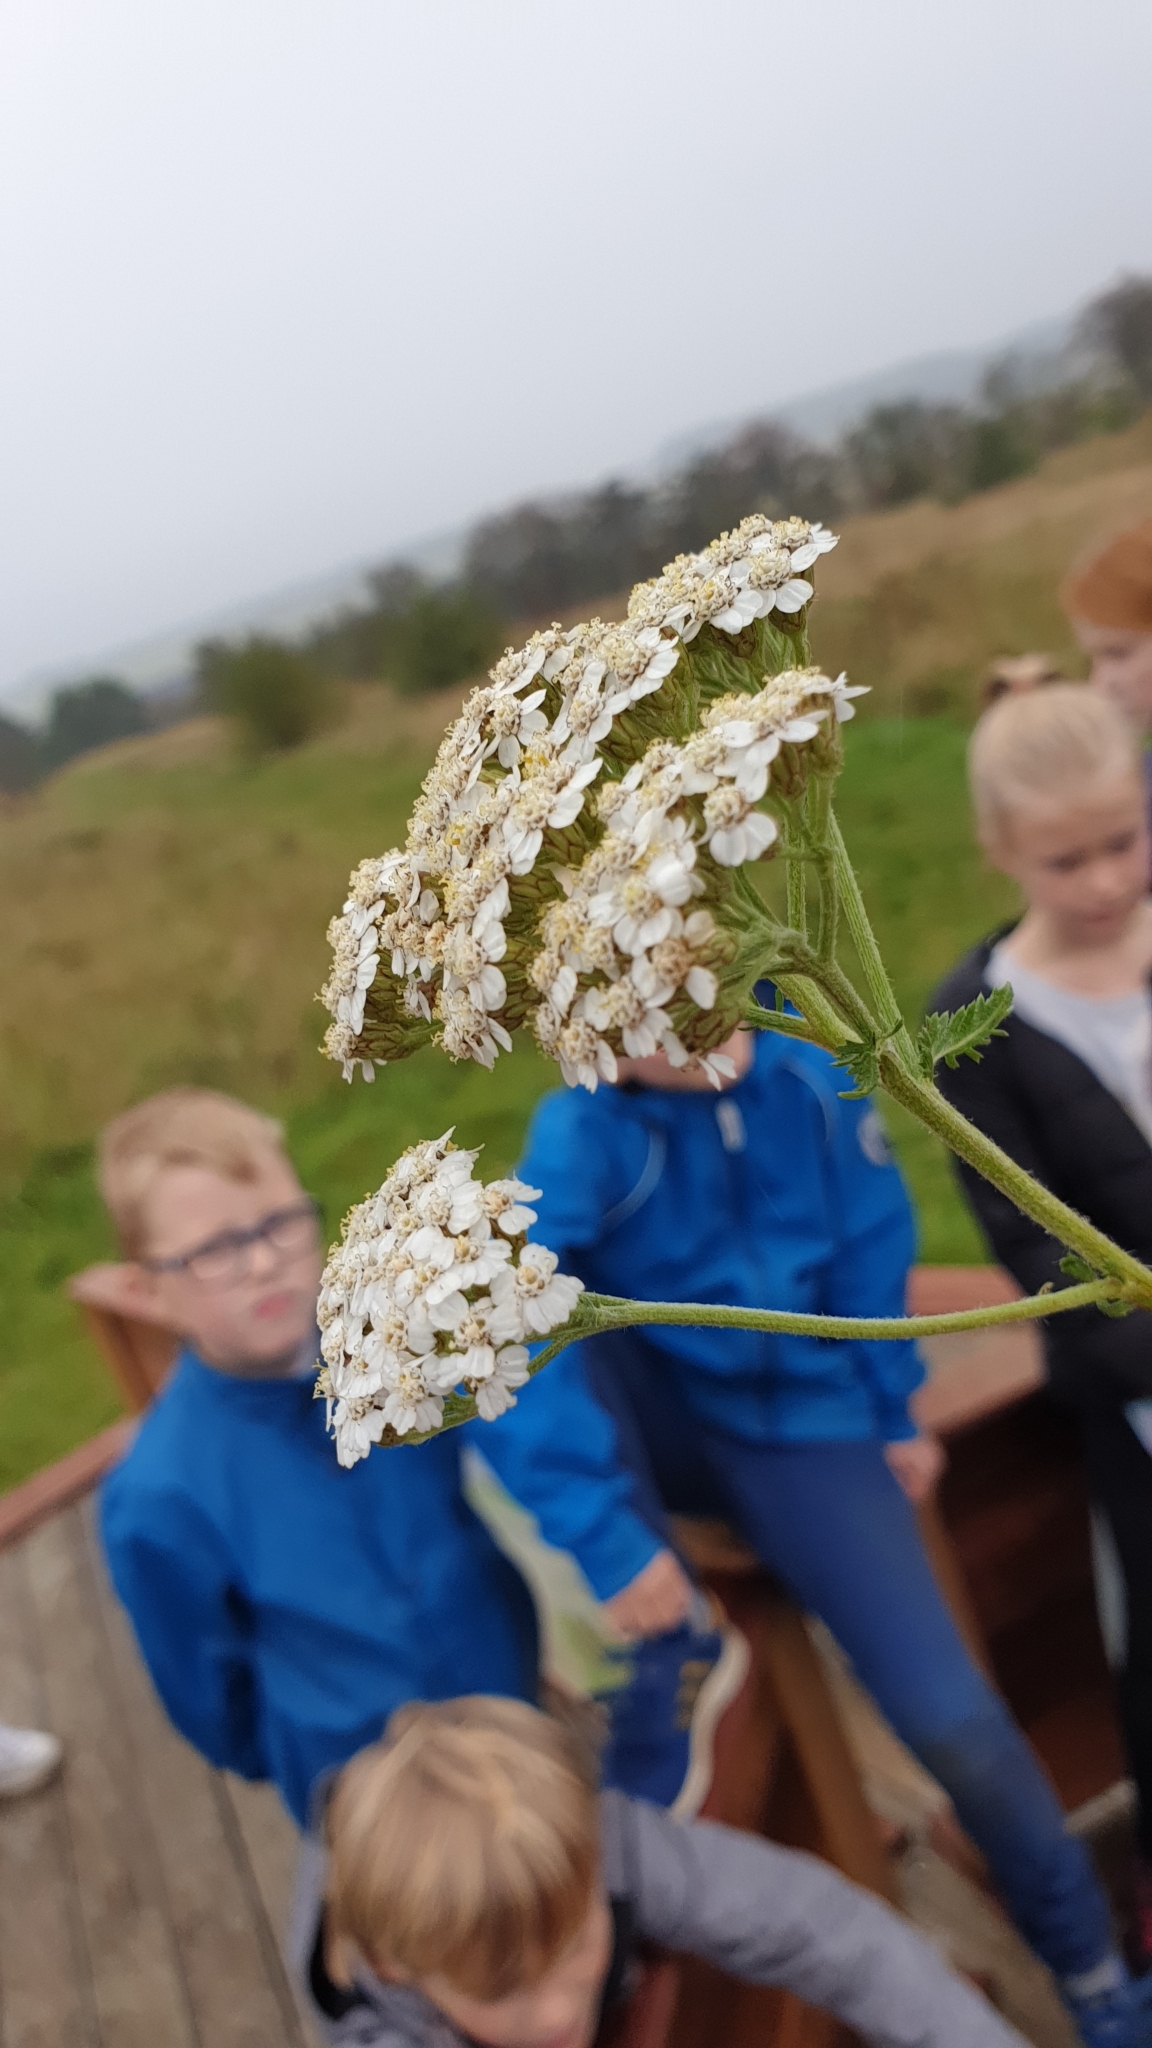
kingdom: Plantae
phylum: Tracheophyta
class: Magnoliopsida
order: Asterales
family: Asteraceae
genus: Achillea
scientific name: Achillea millefolium
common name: Yarrow
